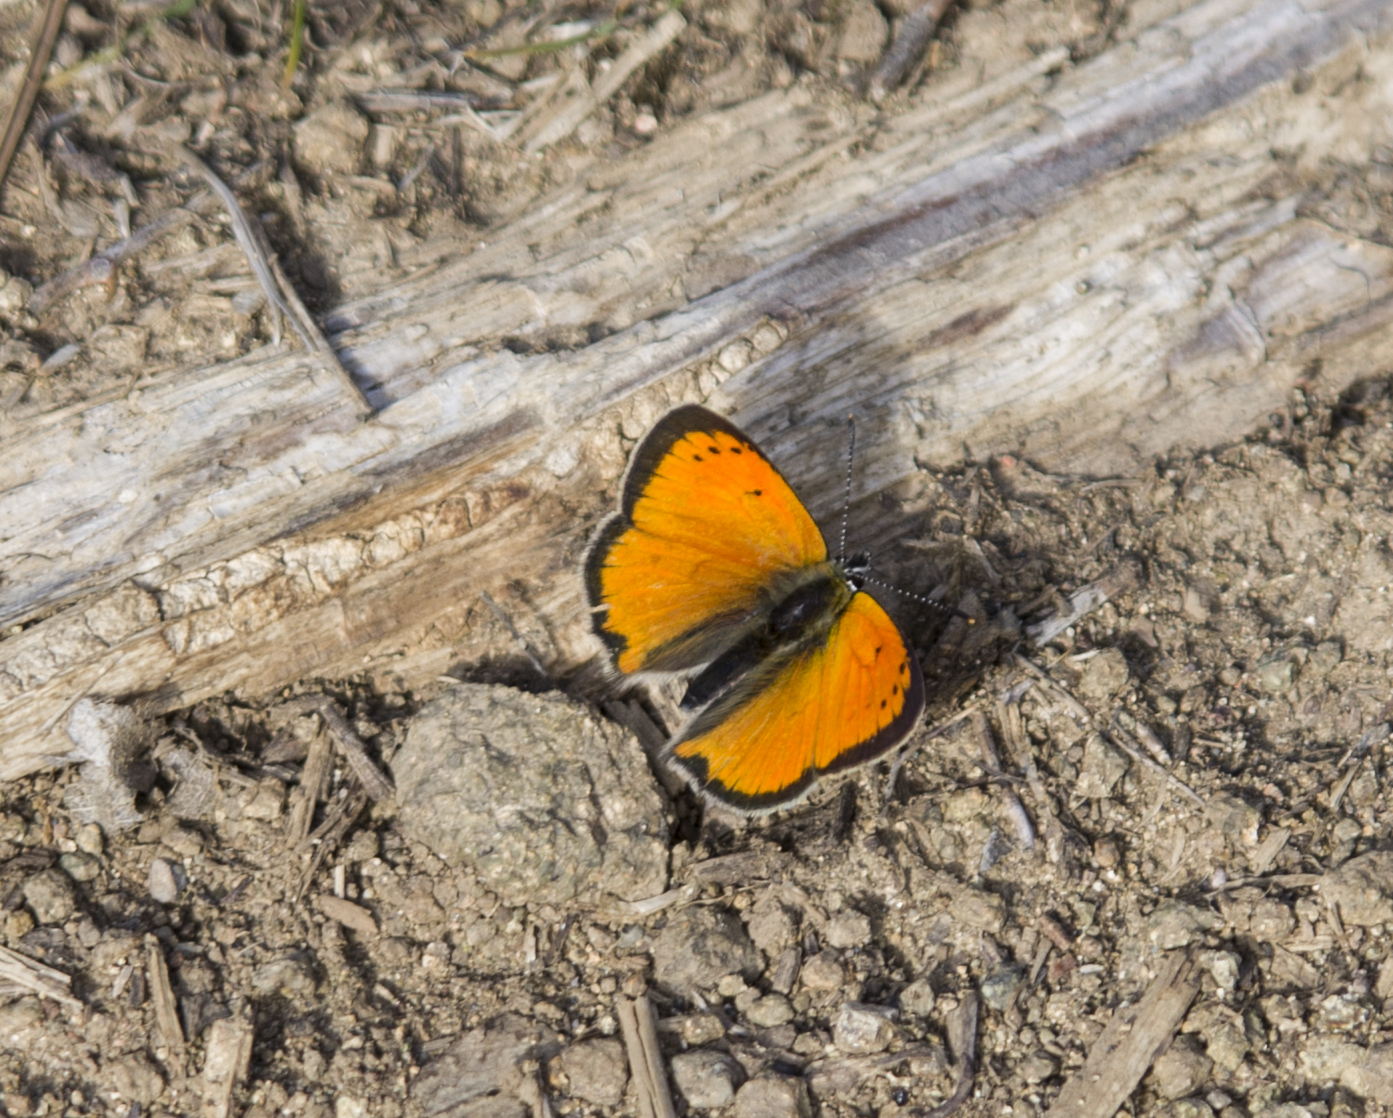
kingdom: Animalia
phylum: Arthropoda
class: Insecta
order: Lepidoptera
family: Lycaenidae
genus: Polyommatus
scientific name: Polyommatus ottomanus
